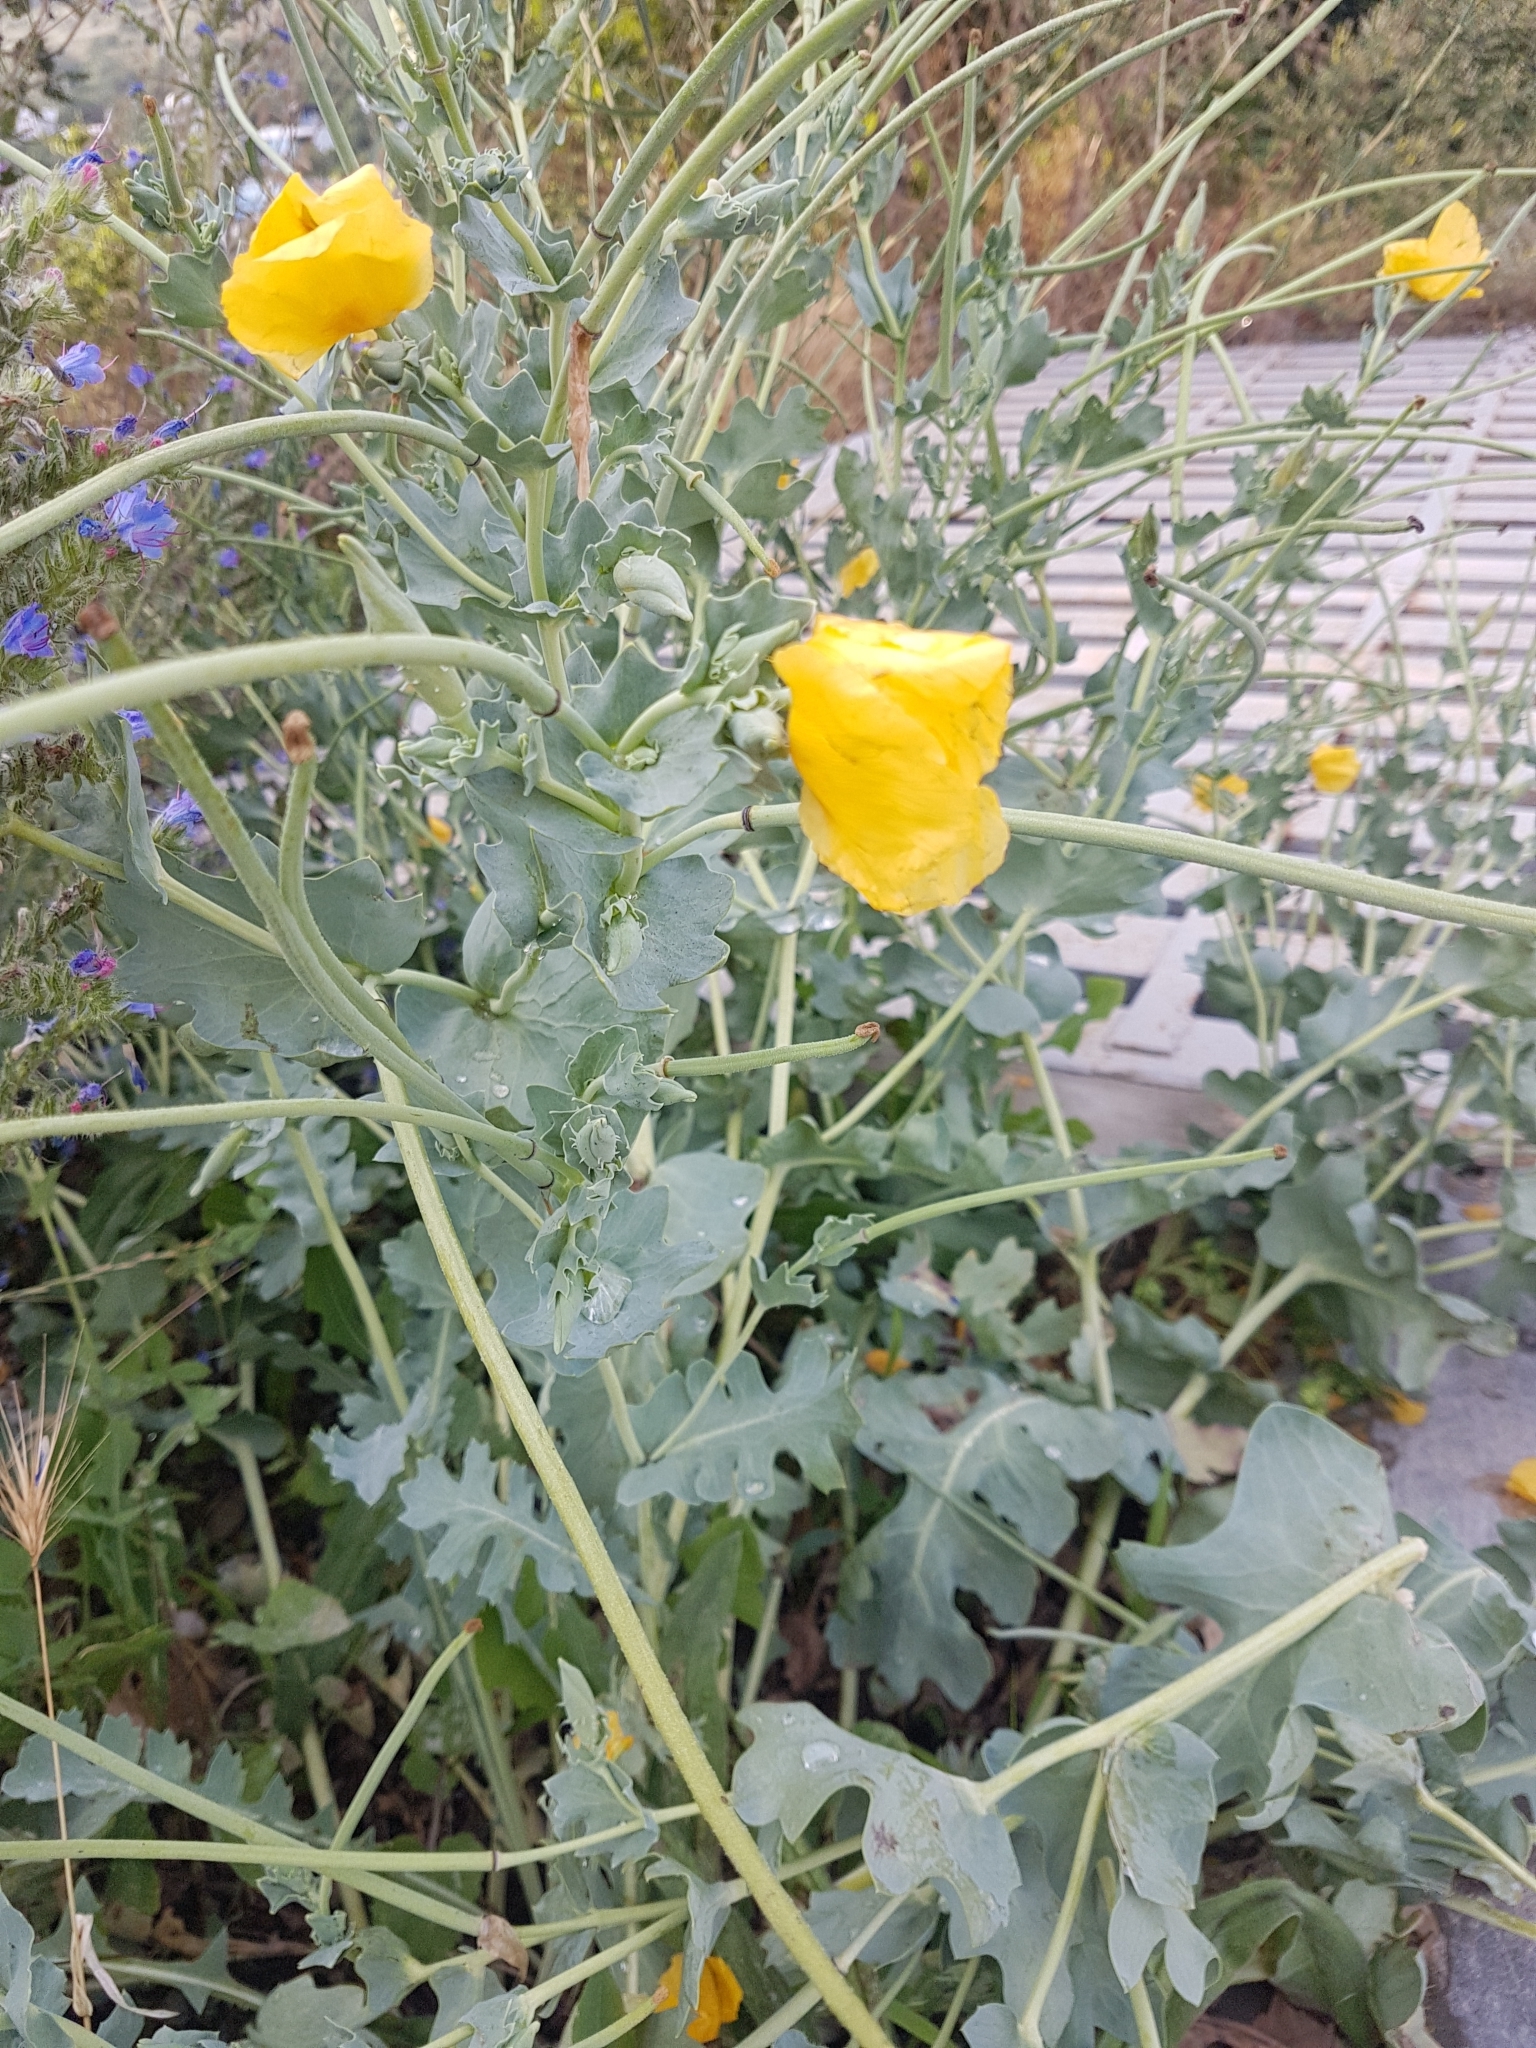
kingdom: Plantae
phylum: Tracheophyta
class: Magnoliopsida
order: Ranunculales
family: Papaveraceae
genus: Glaucium
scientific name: Glaucium flavum
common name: Yellow horned-poppy
